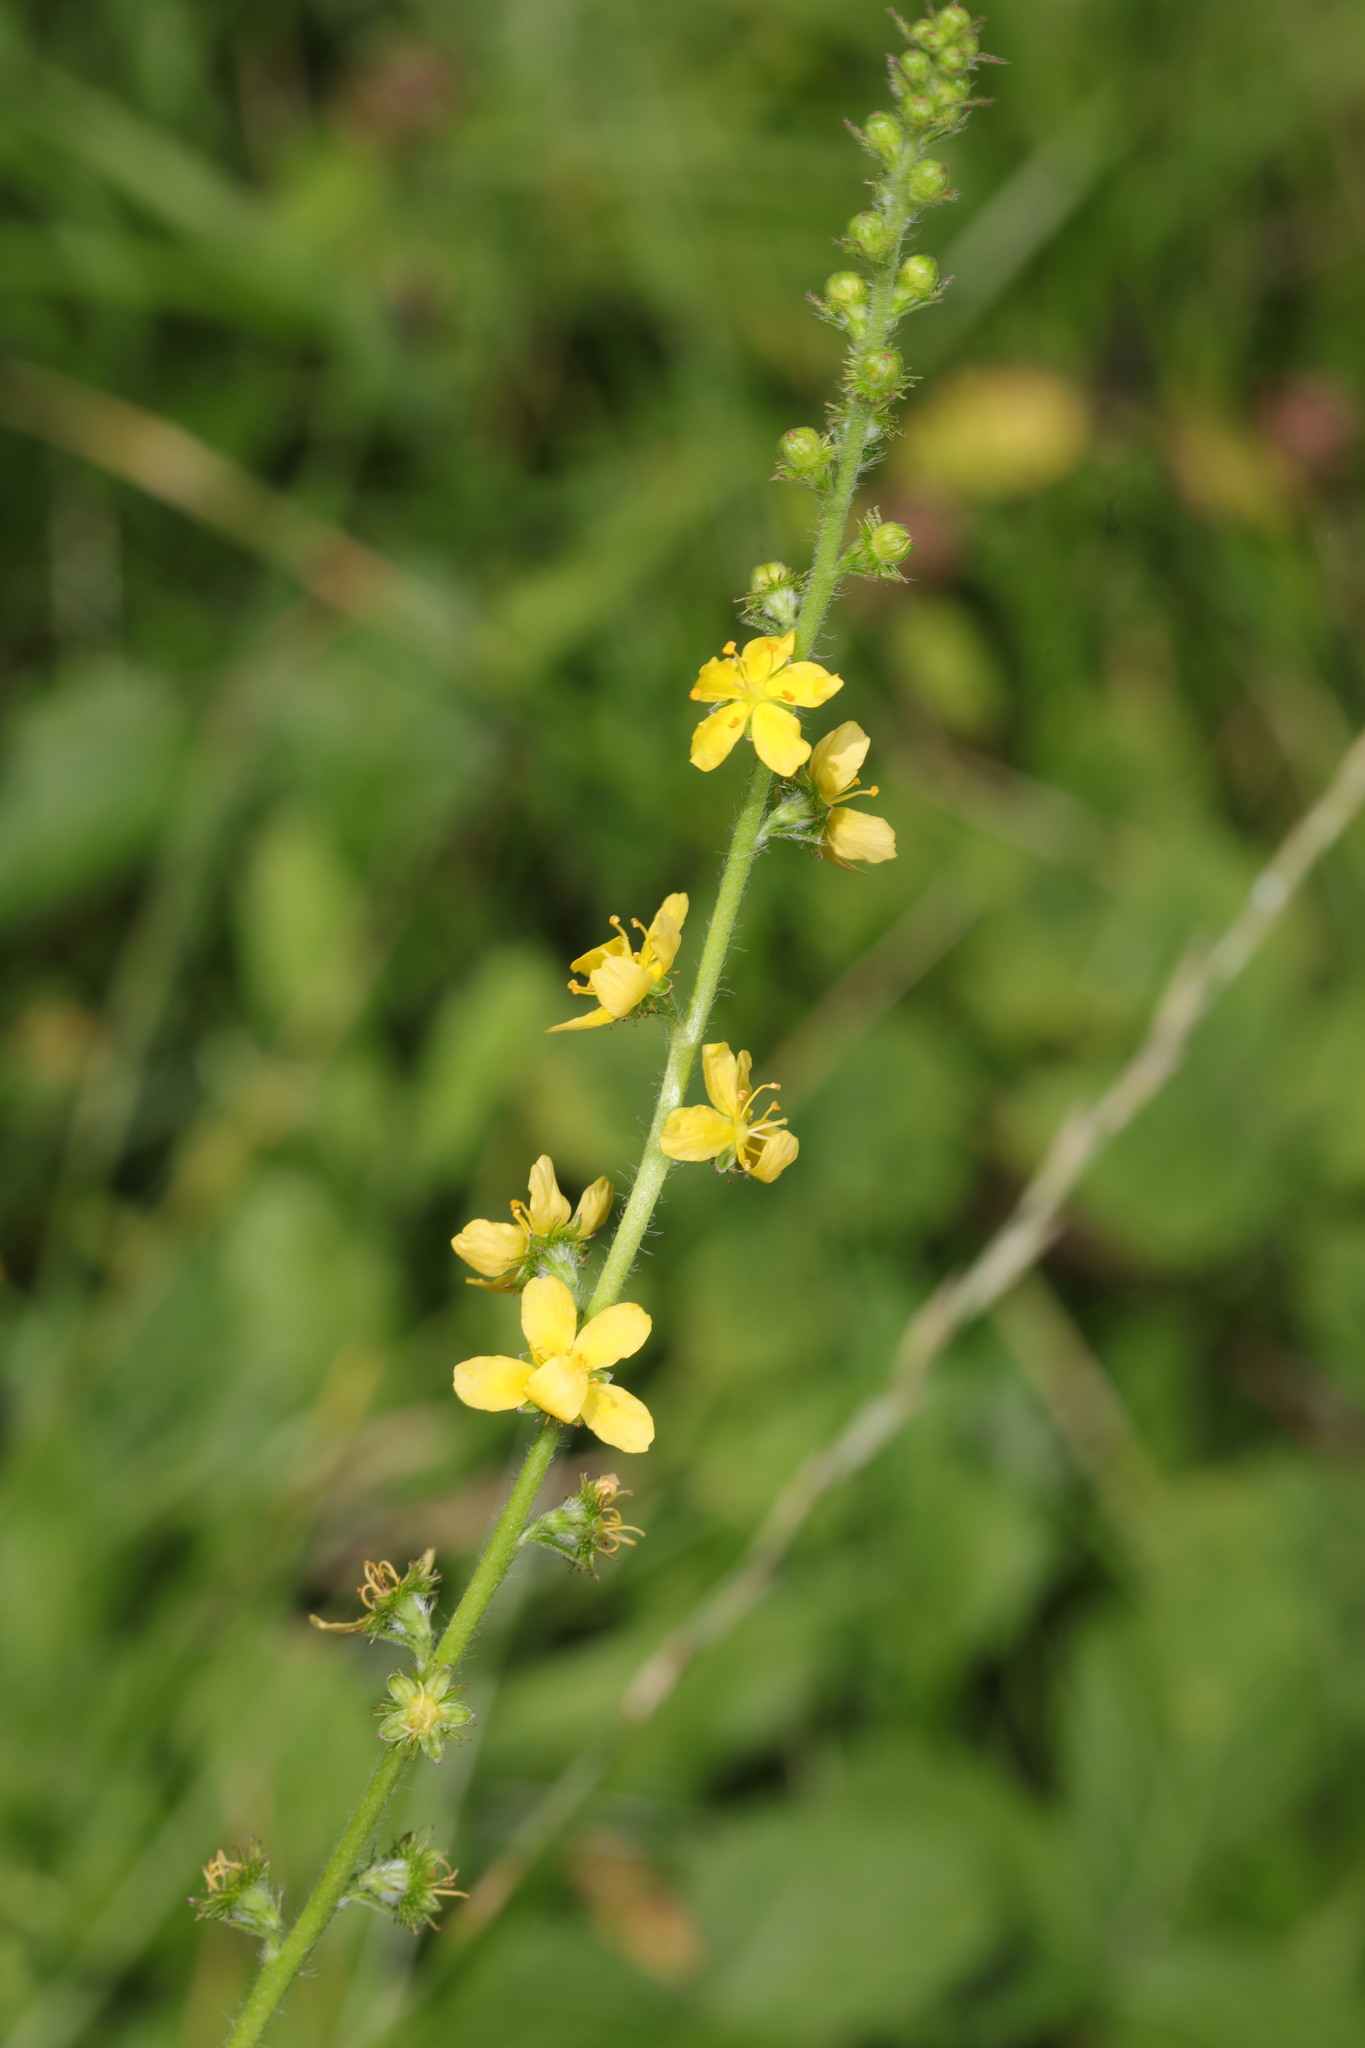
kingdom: Plantae
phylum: Tracheophyta
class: Magnoliopsida
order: Rosales
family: Rosaceae
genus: Agrimonia
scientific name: Agrimonia eupatoria
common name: Agrimony
